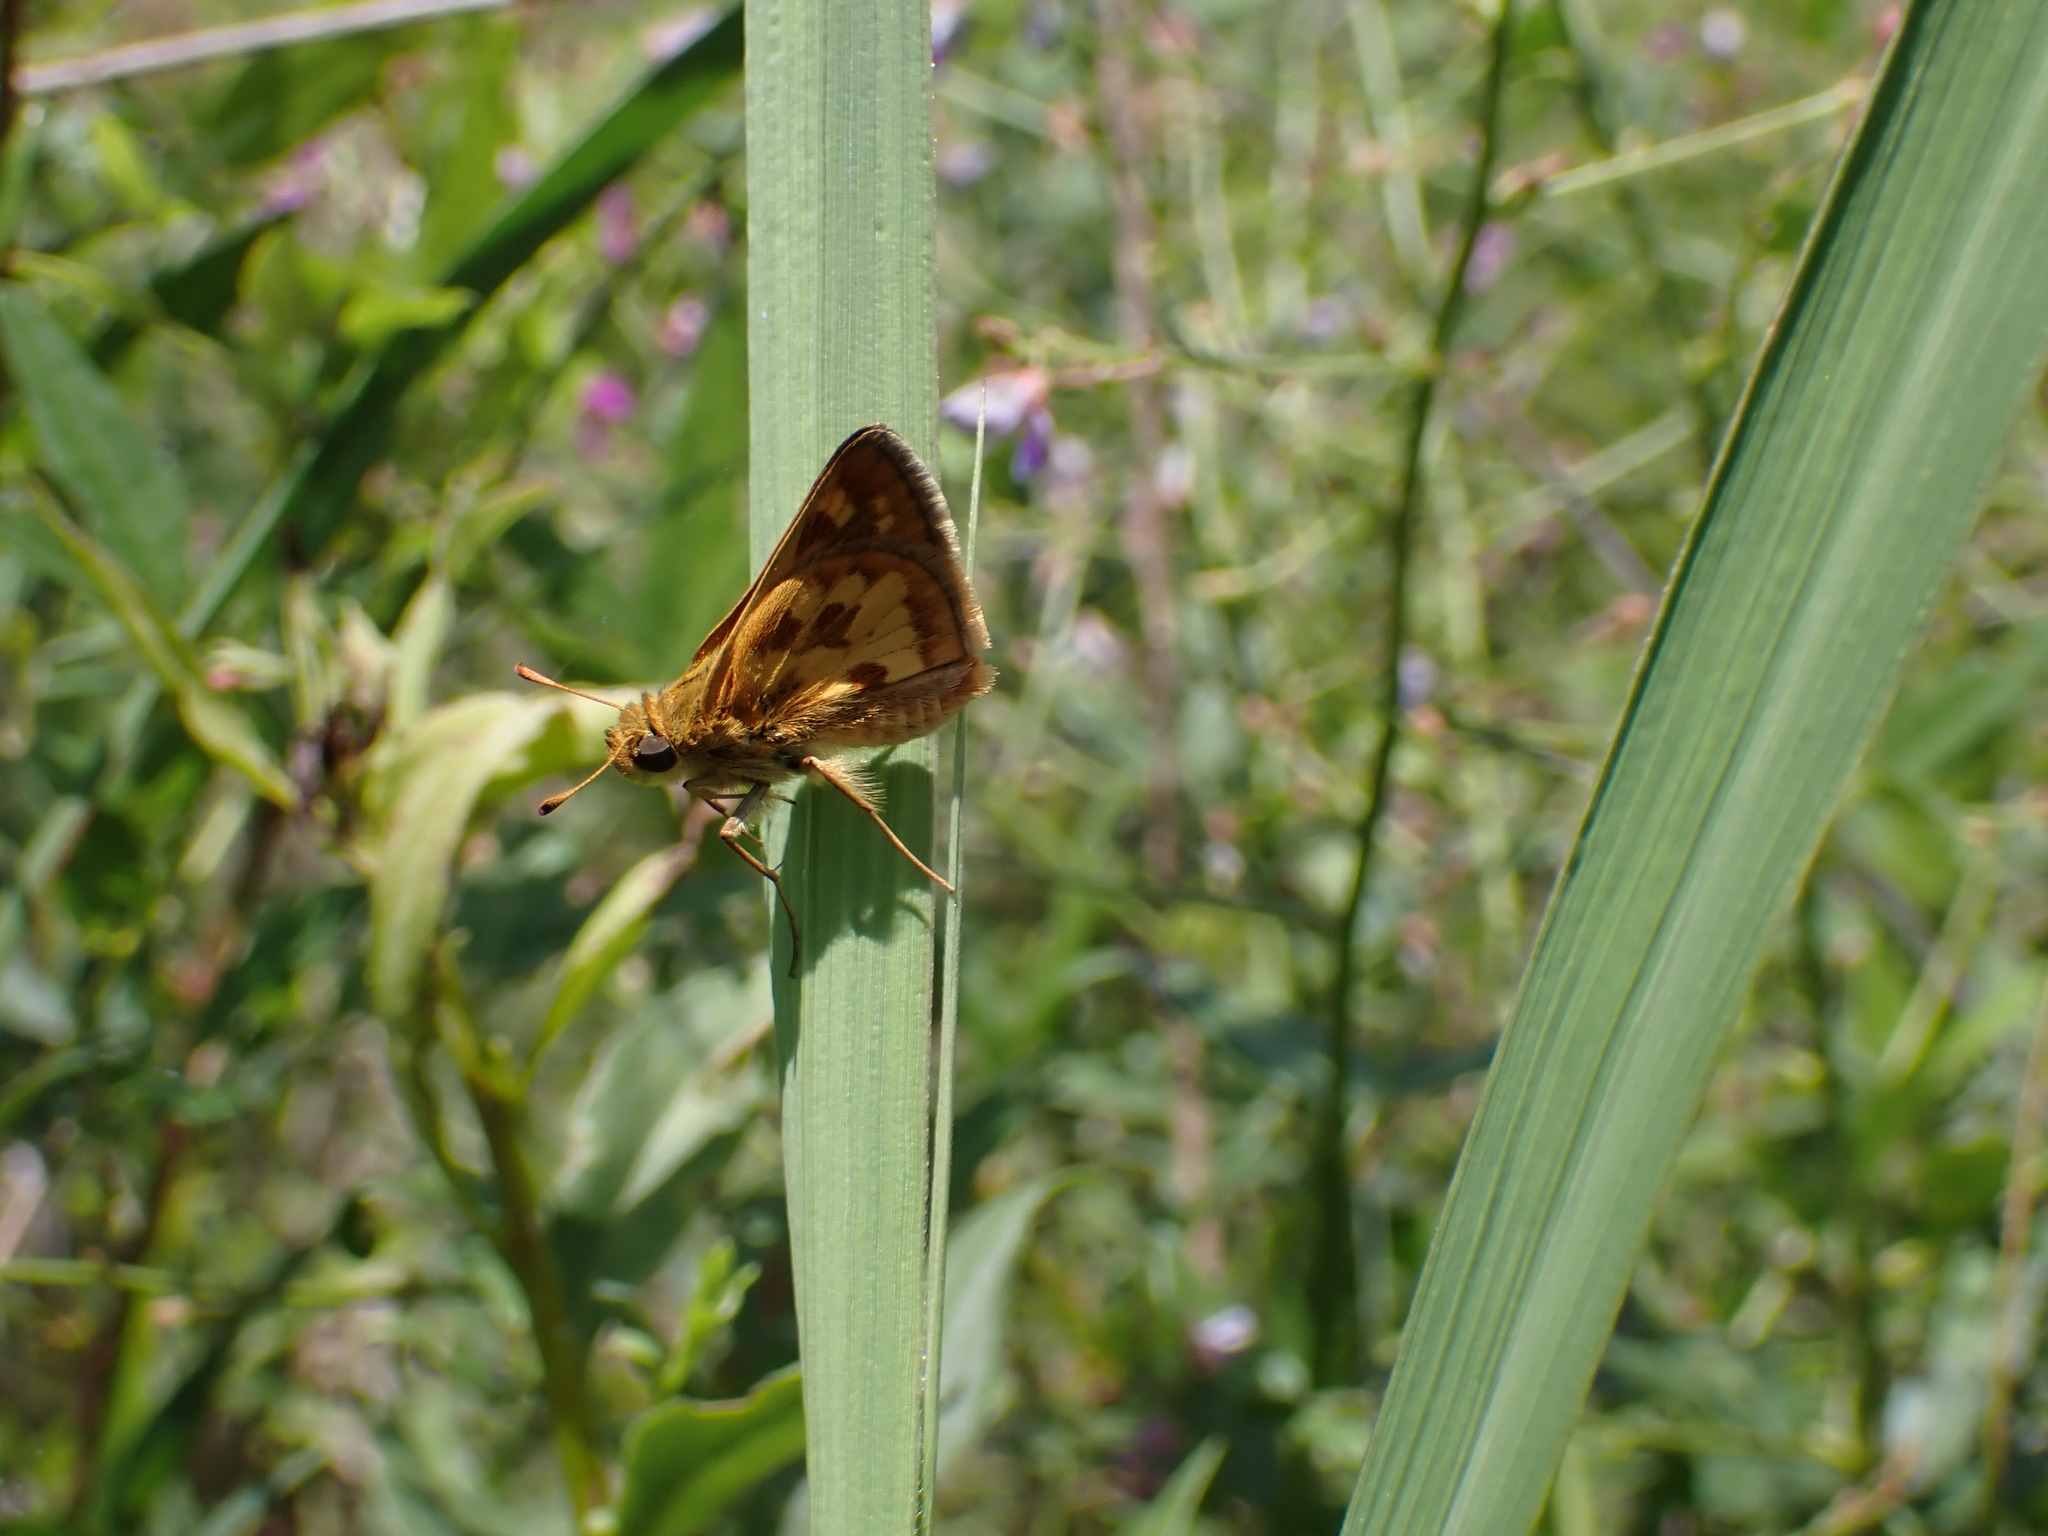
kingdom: Animalia
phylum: Arthropoda
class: Insecta
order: Lepidoptera
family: Hesperiidae
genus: Polites
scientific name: Polites coras
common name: Peck's skipper
